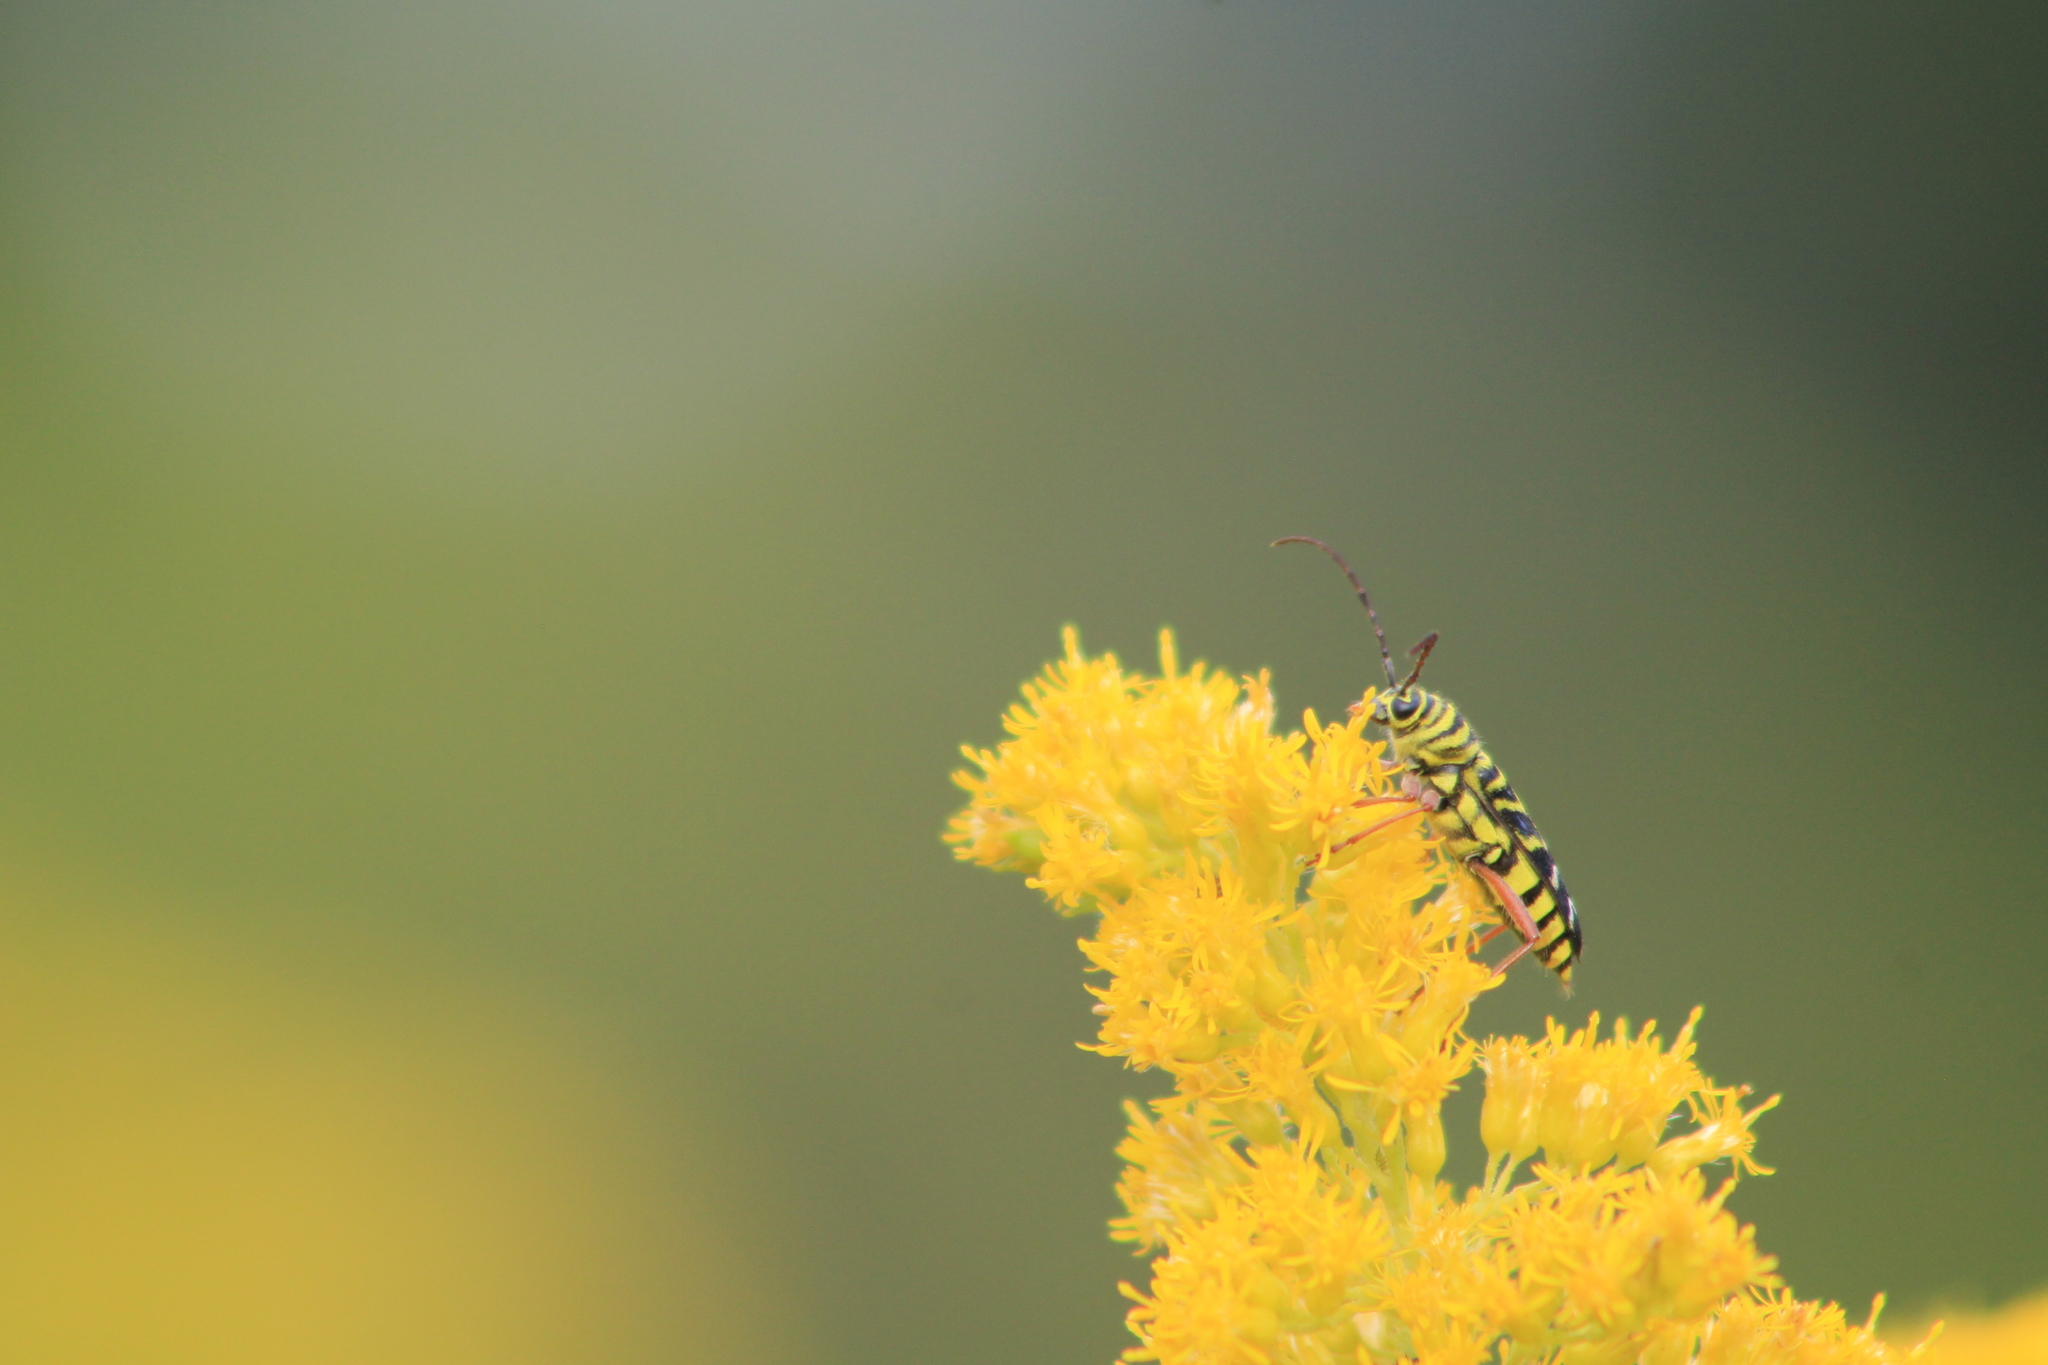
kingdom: Animalia
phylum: Arthropoda
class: Insecta
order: Coleoptera
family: Cerambycidae
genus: Megacyllene
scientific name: Megacyllene robiniae
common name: Locust borer
